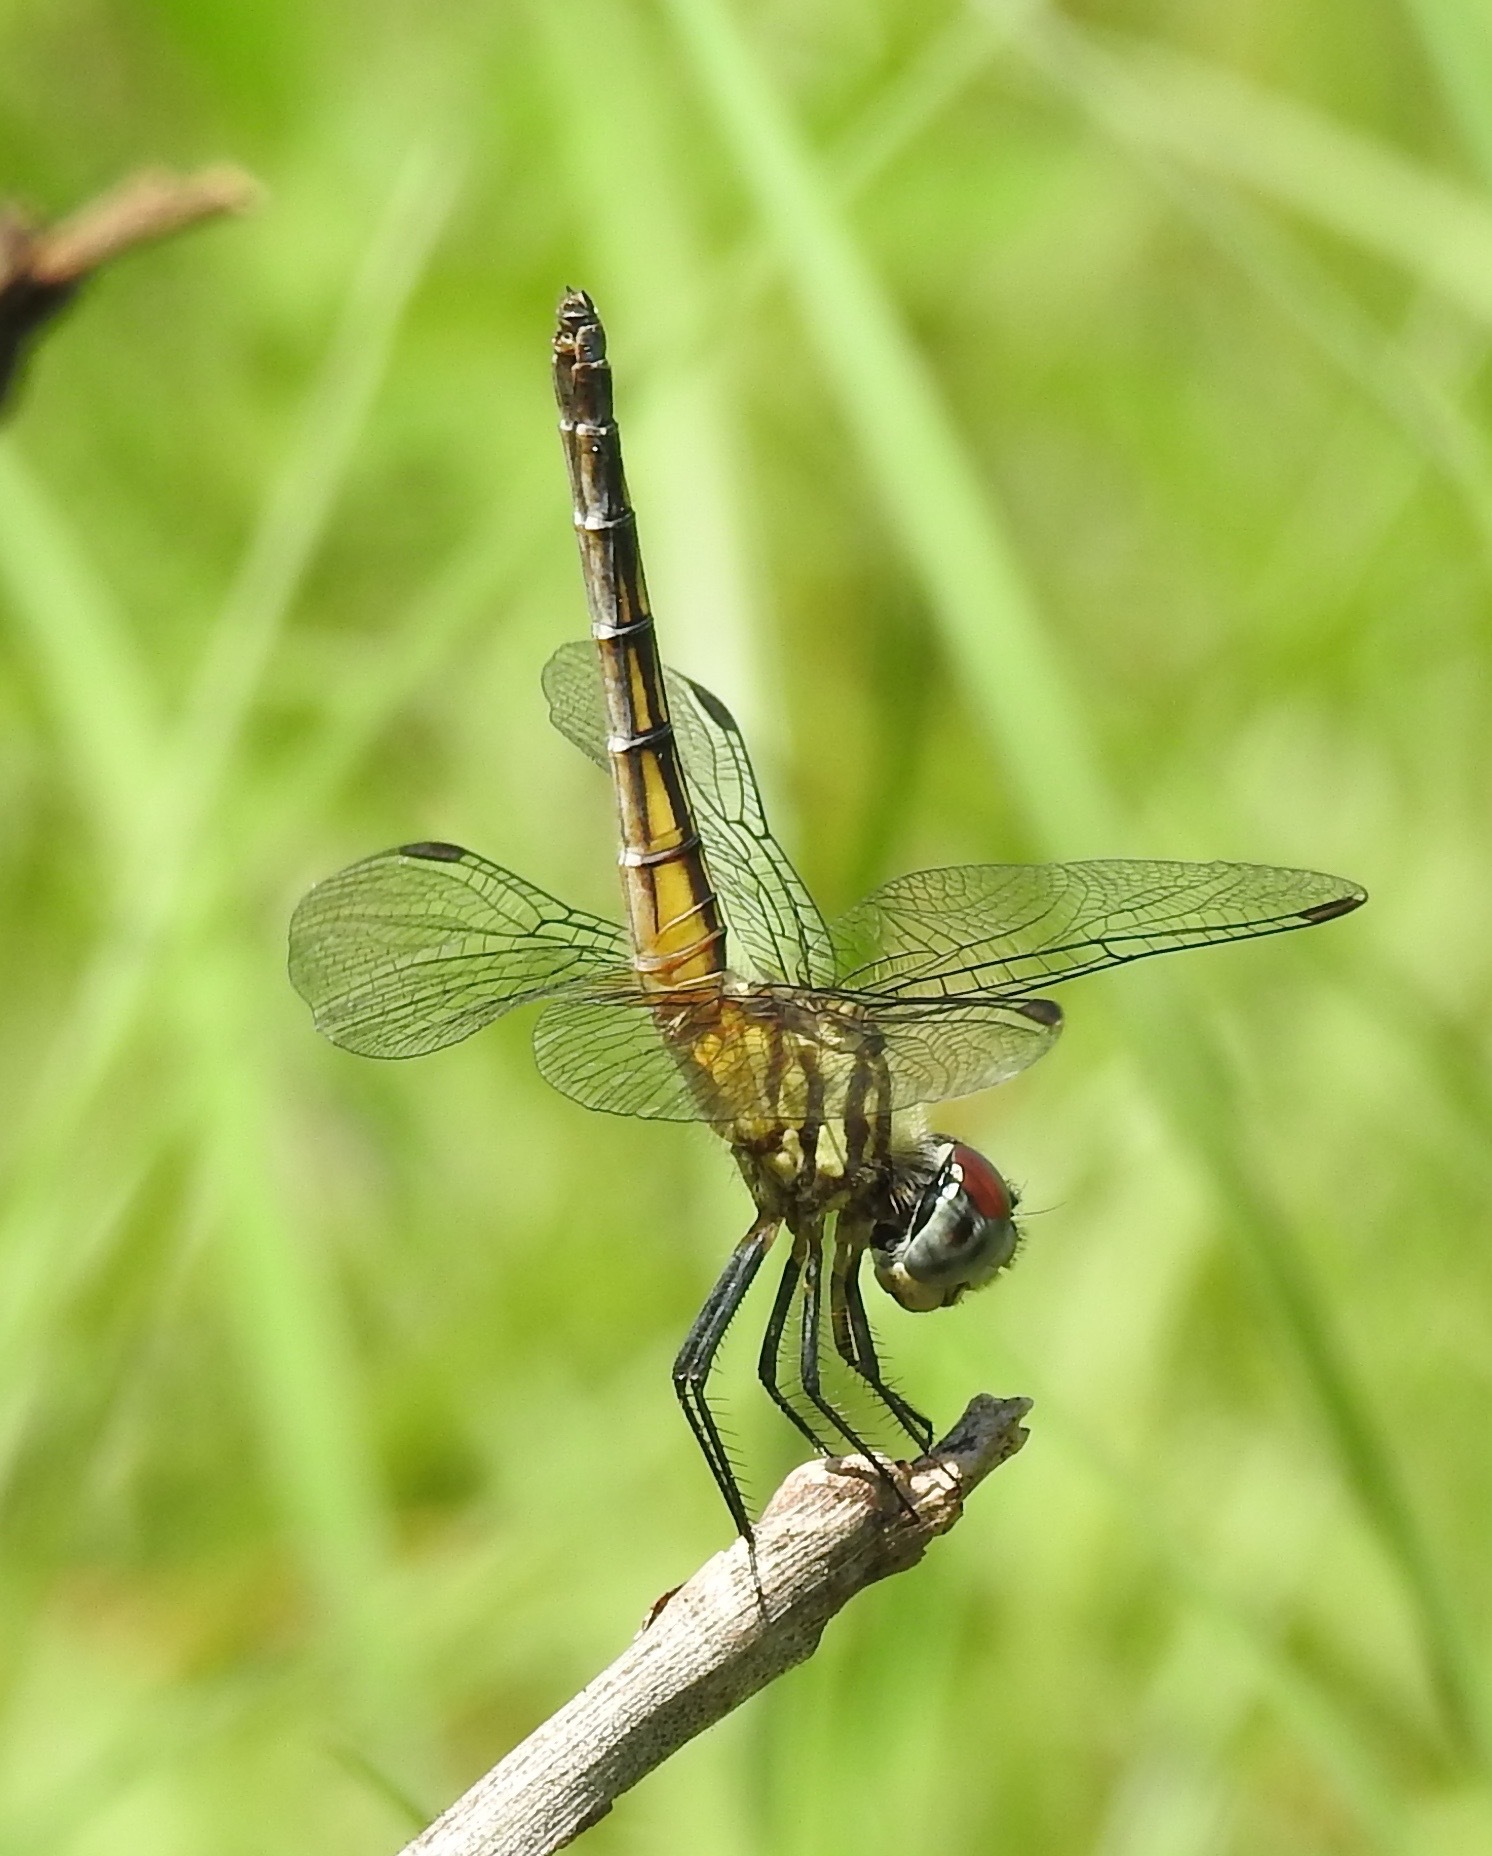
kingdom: Animalia
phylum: Arthropoda
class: Insecta
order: Odonata
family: Libellulidae
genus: Pachydiplax
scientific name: Pachydiplax longipennis
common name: Blue dasher
